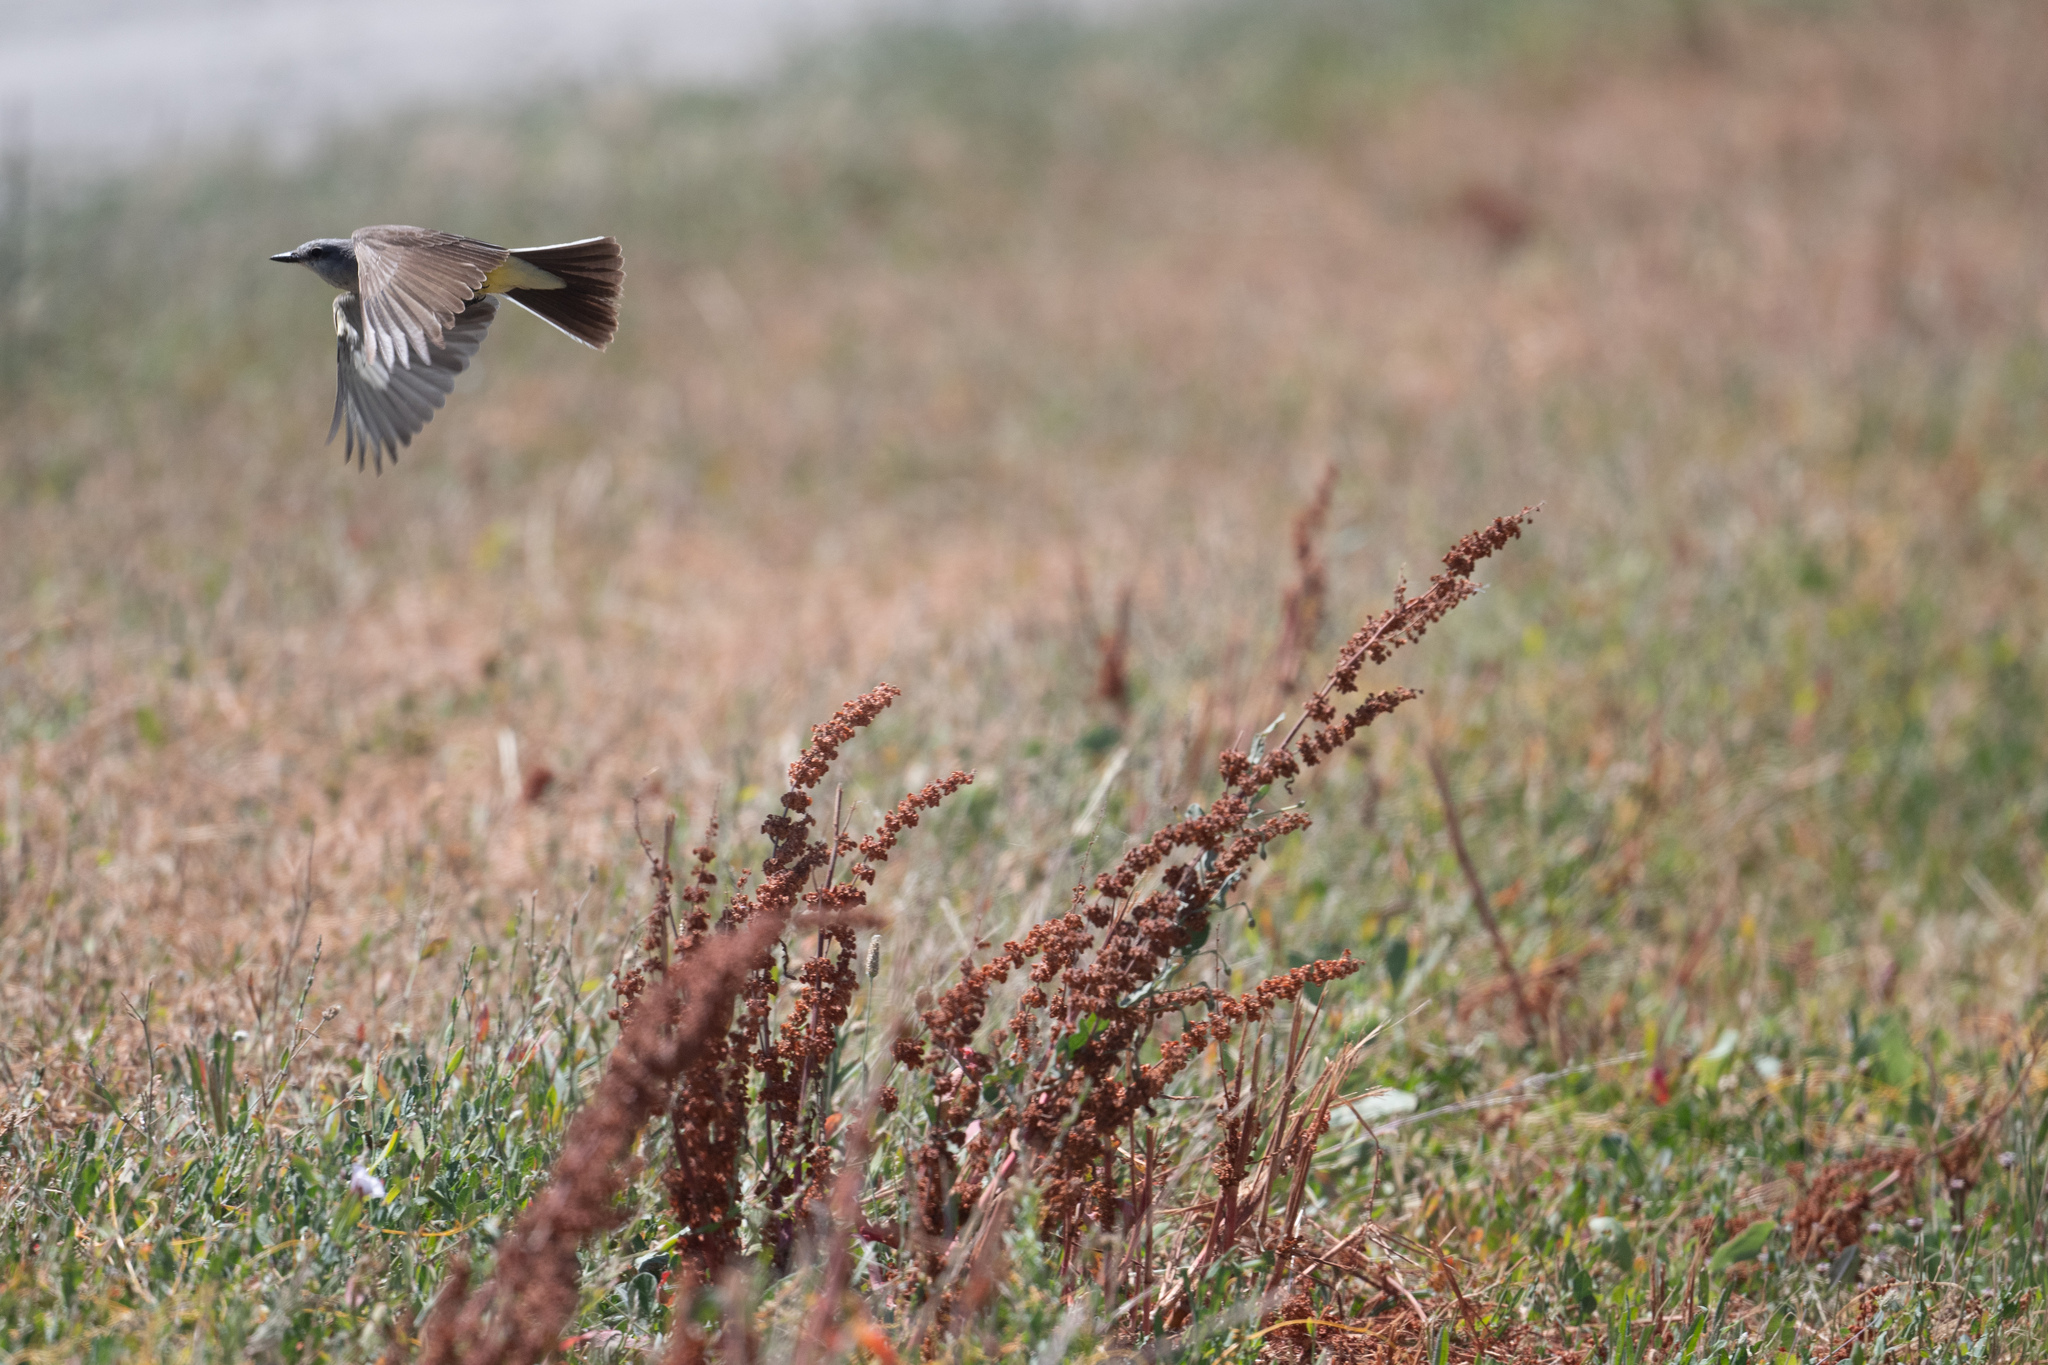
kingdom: Animalia
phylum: Chordata
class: Aves
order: Passeriformes
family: Tyrannidae
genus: Tyrannus
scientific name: Tyrannus verticalis
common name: Western kingbird
